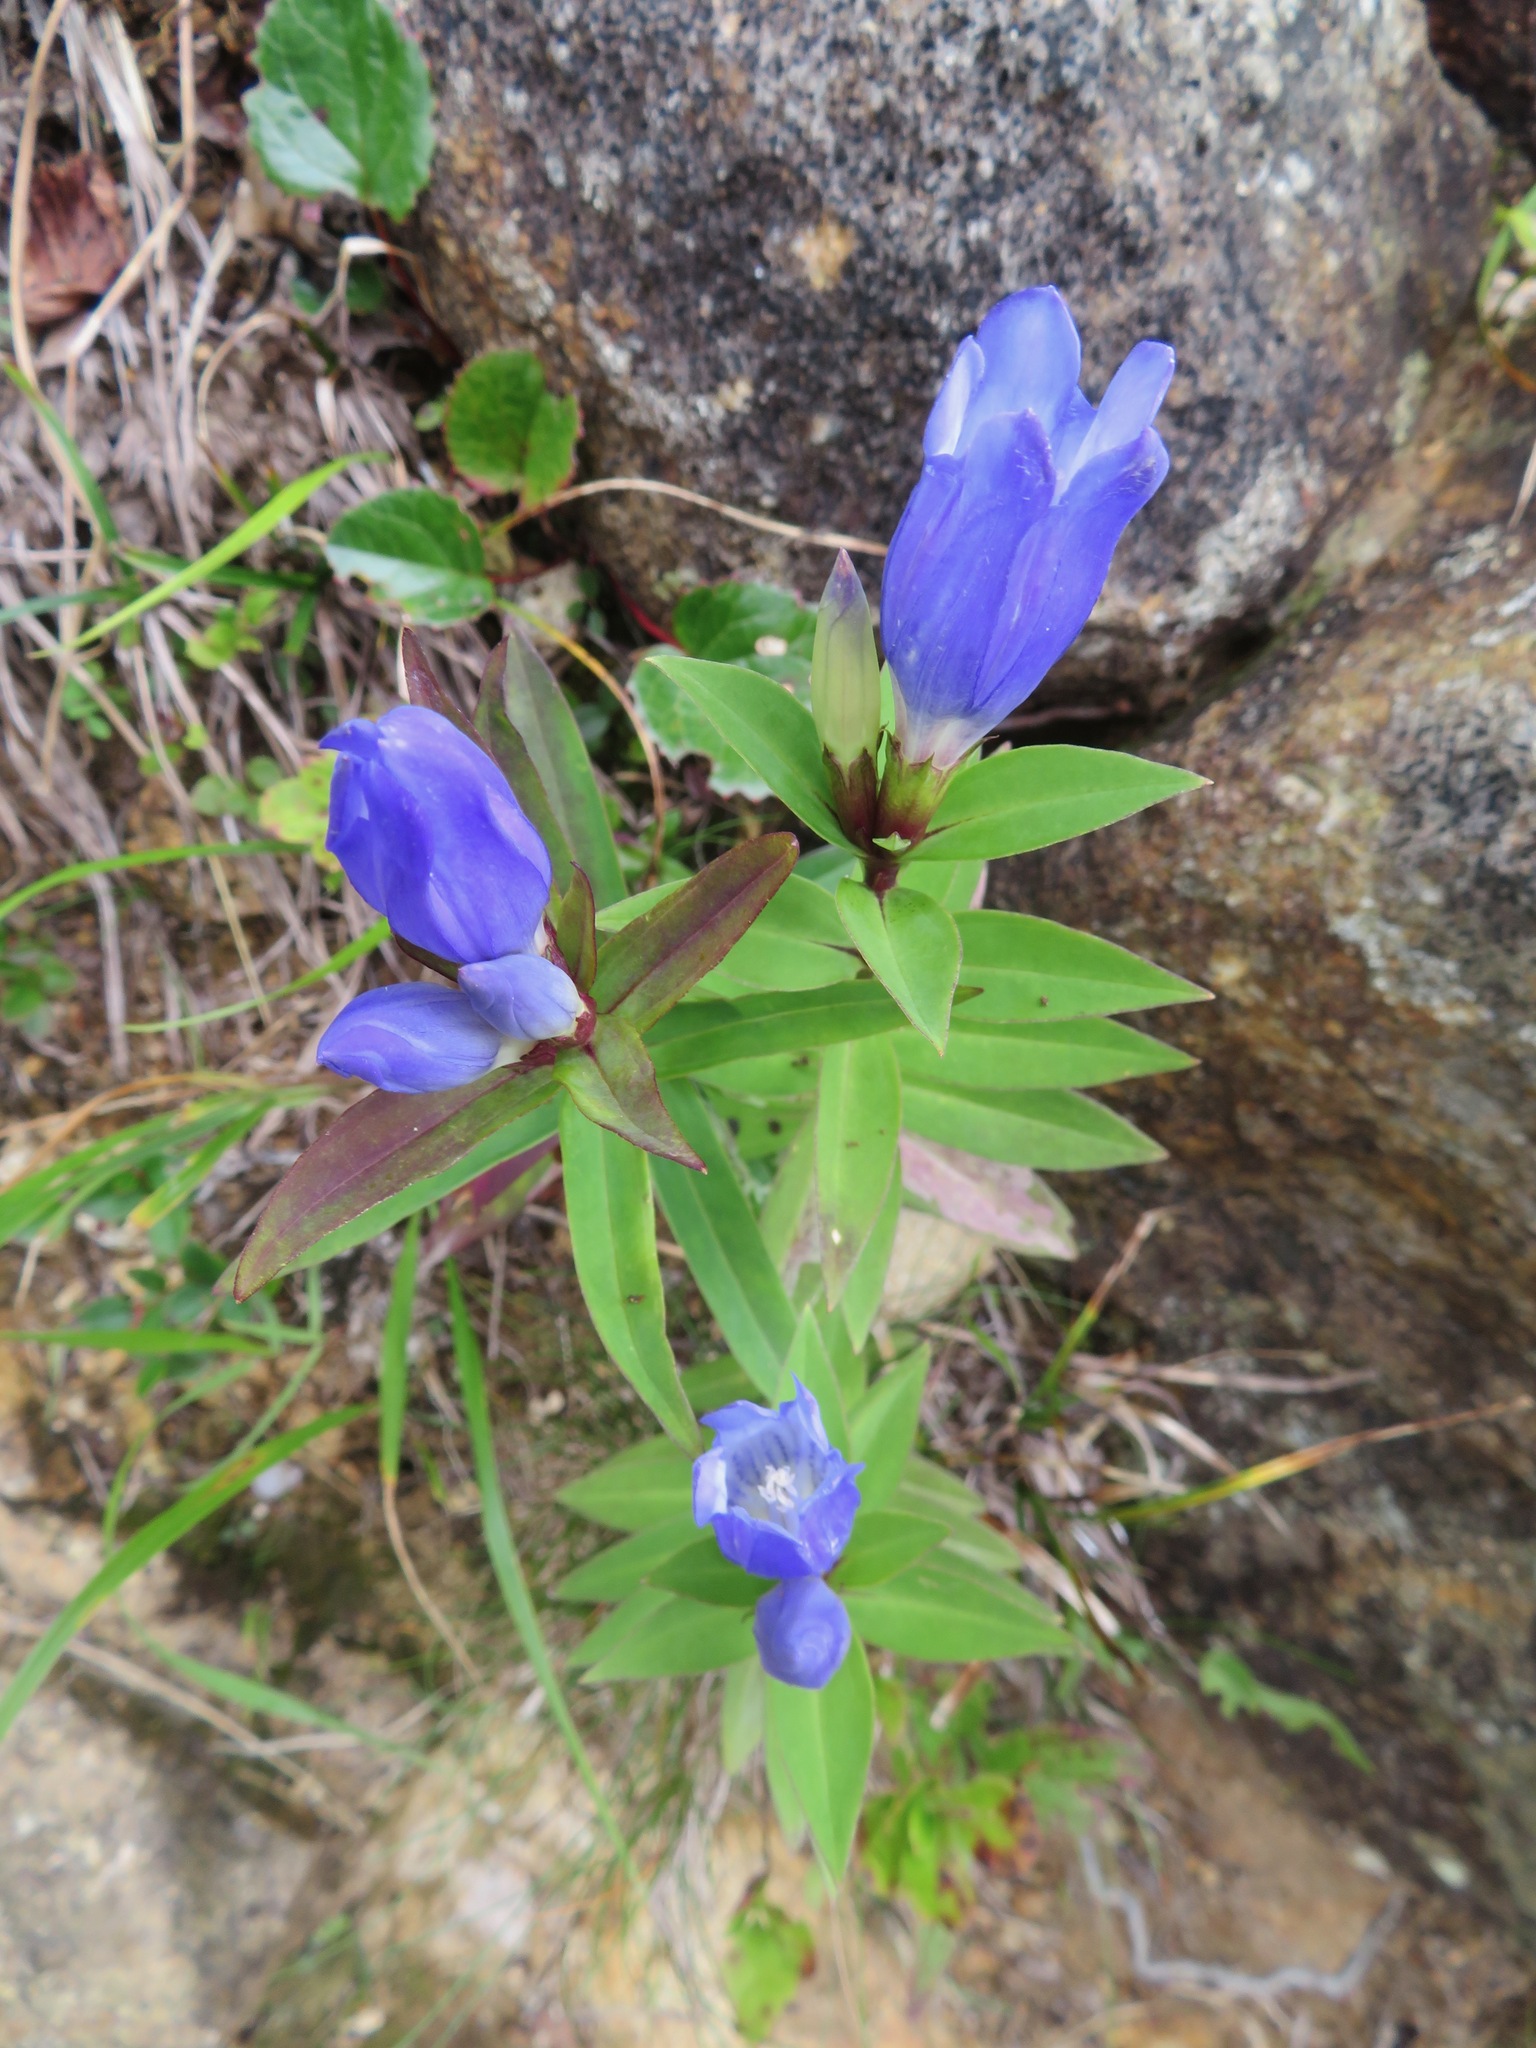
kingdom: Plantae
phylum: Tracheophyta
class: Magnoliopsida
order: Gentianales
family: Gentianaceae
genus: Gentiana
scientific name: Gentiana makinoi
